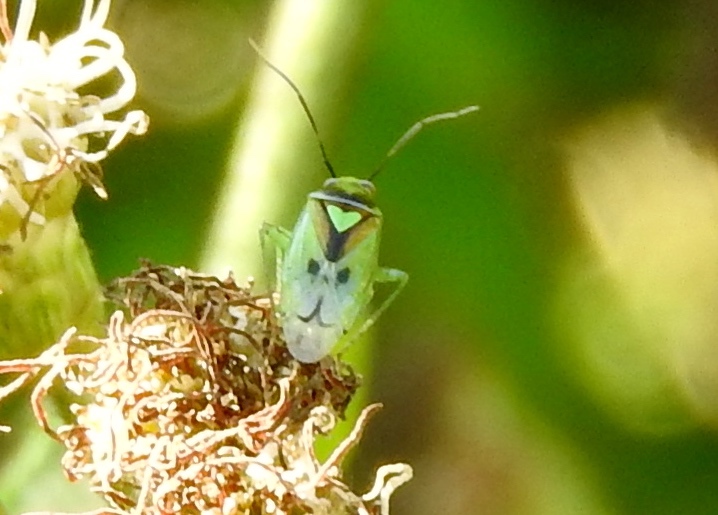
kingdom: Animalia
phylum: Arthropoda
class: Insecta
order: Hemiptera
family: Miridae
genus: Proba
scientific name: Proba distanti
